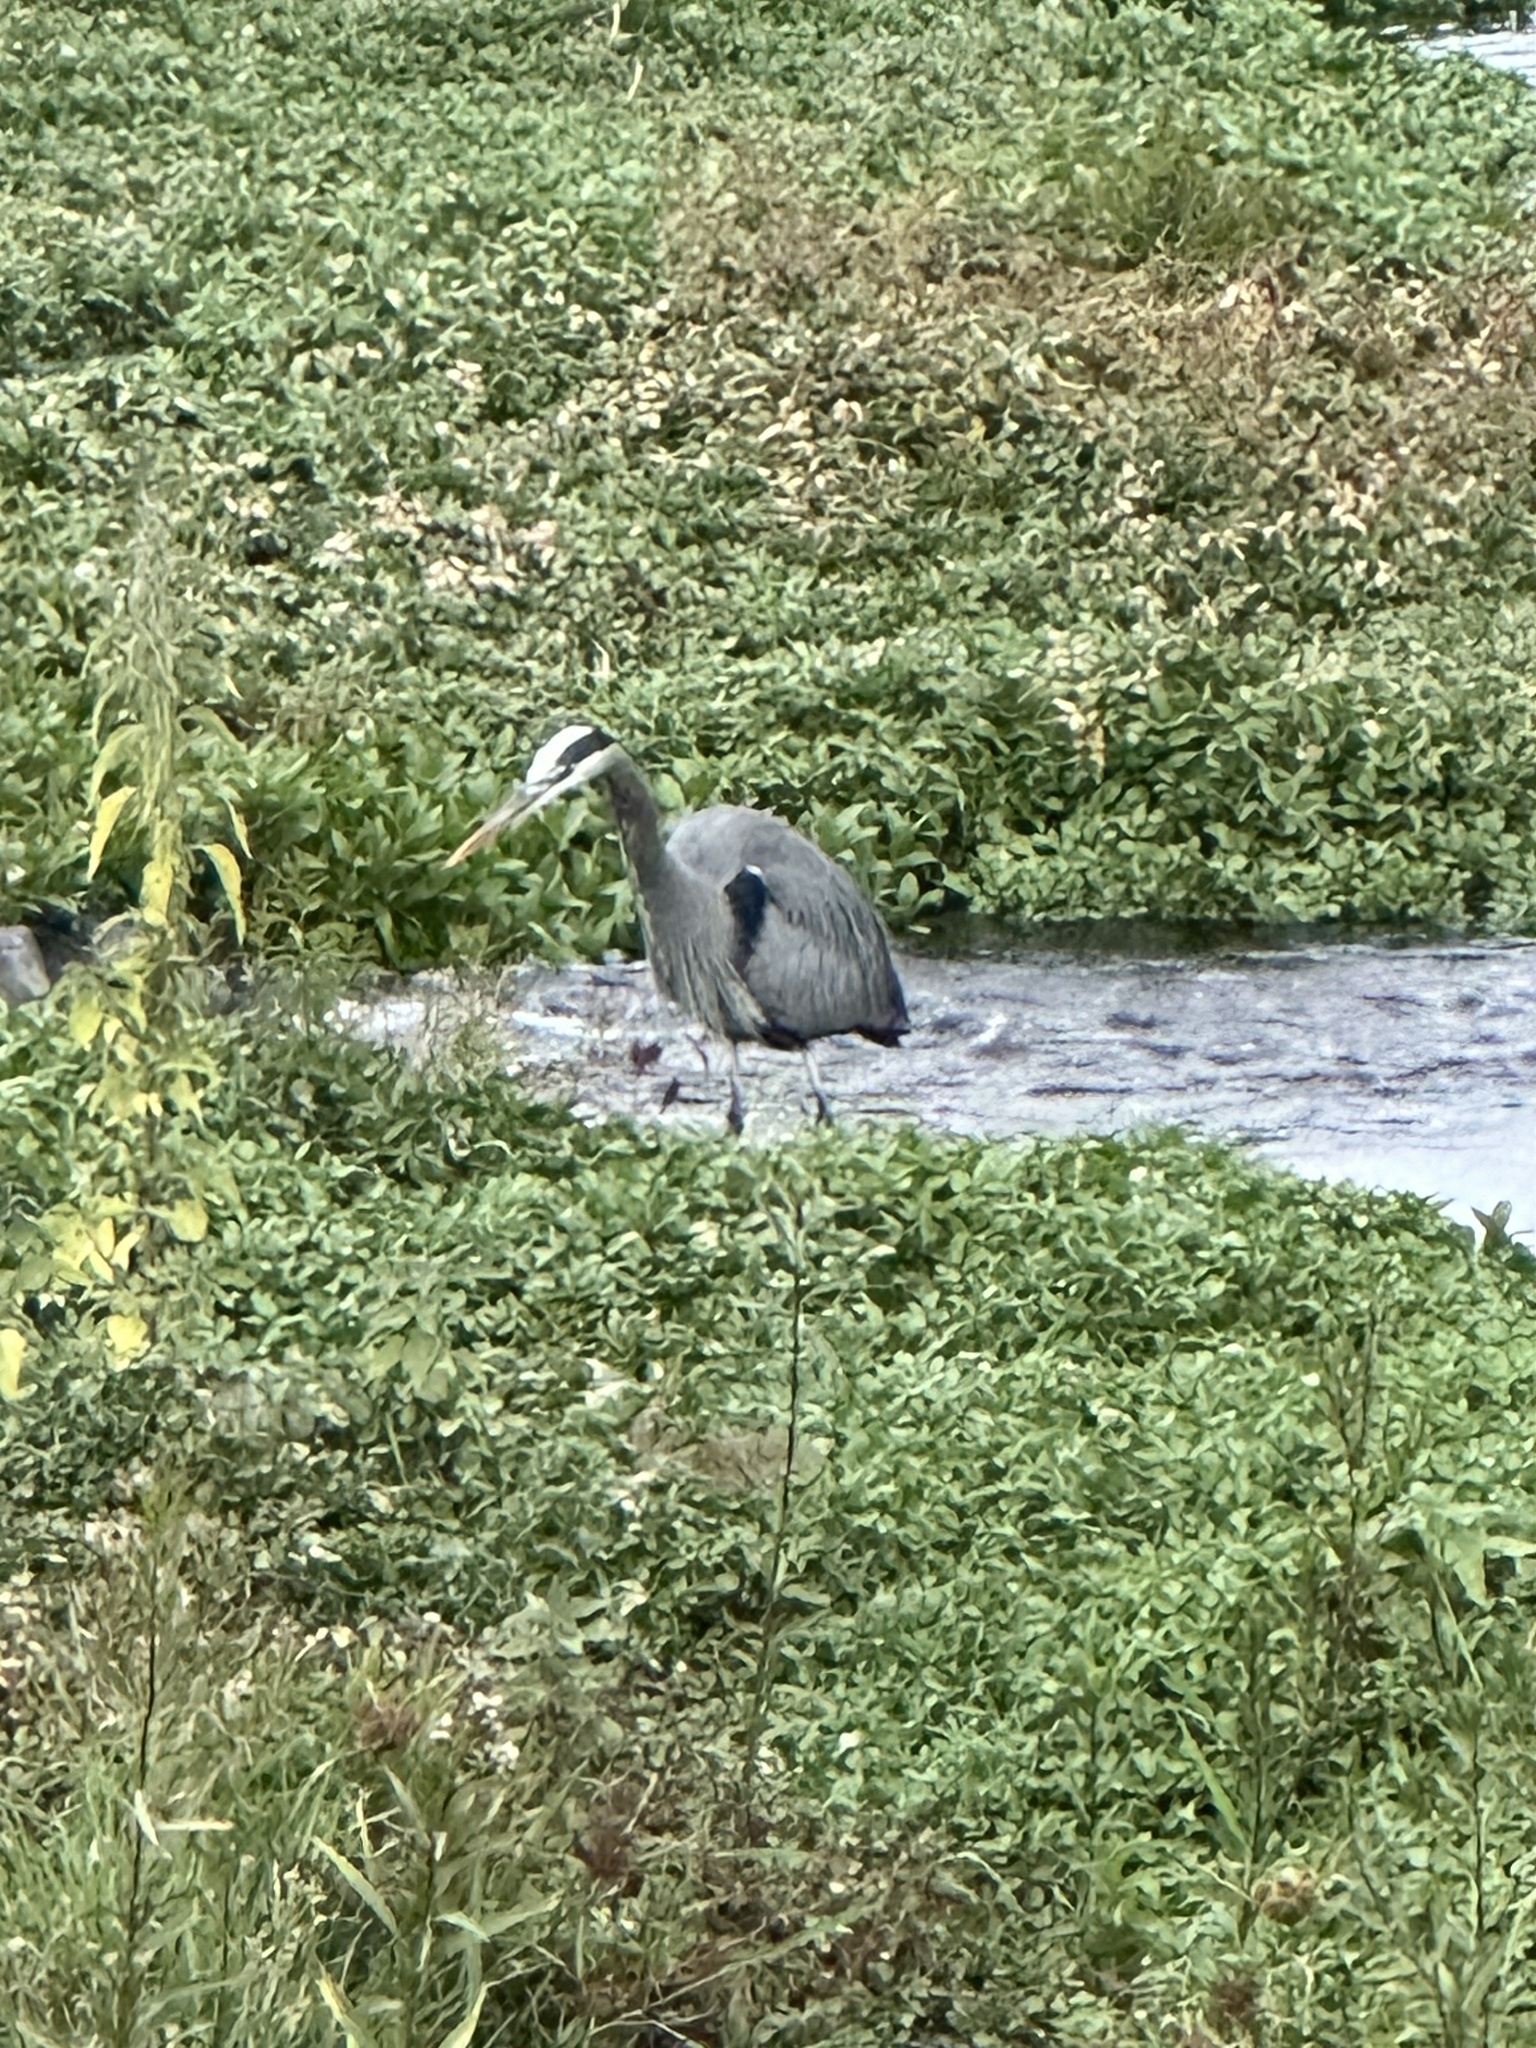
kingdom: Animalia
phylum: Chordata
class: Aves
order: Pelecaniformes
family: Ardeidae
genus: Ardea
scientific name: Ardea herodias
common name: Great blue heron
